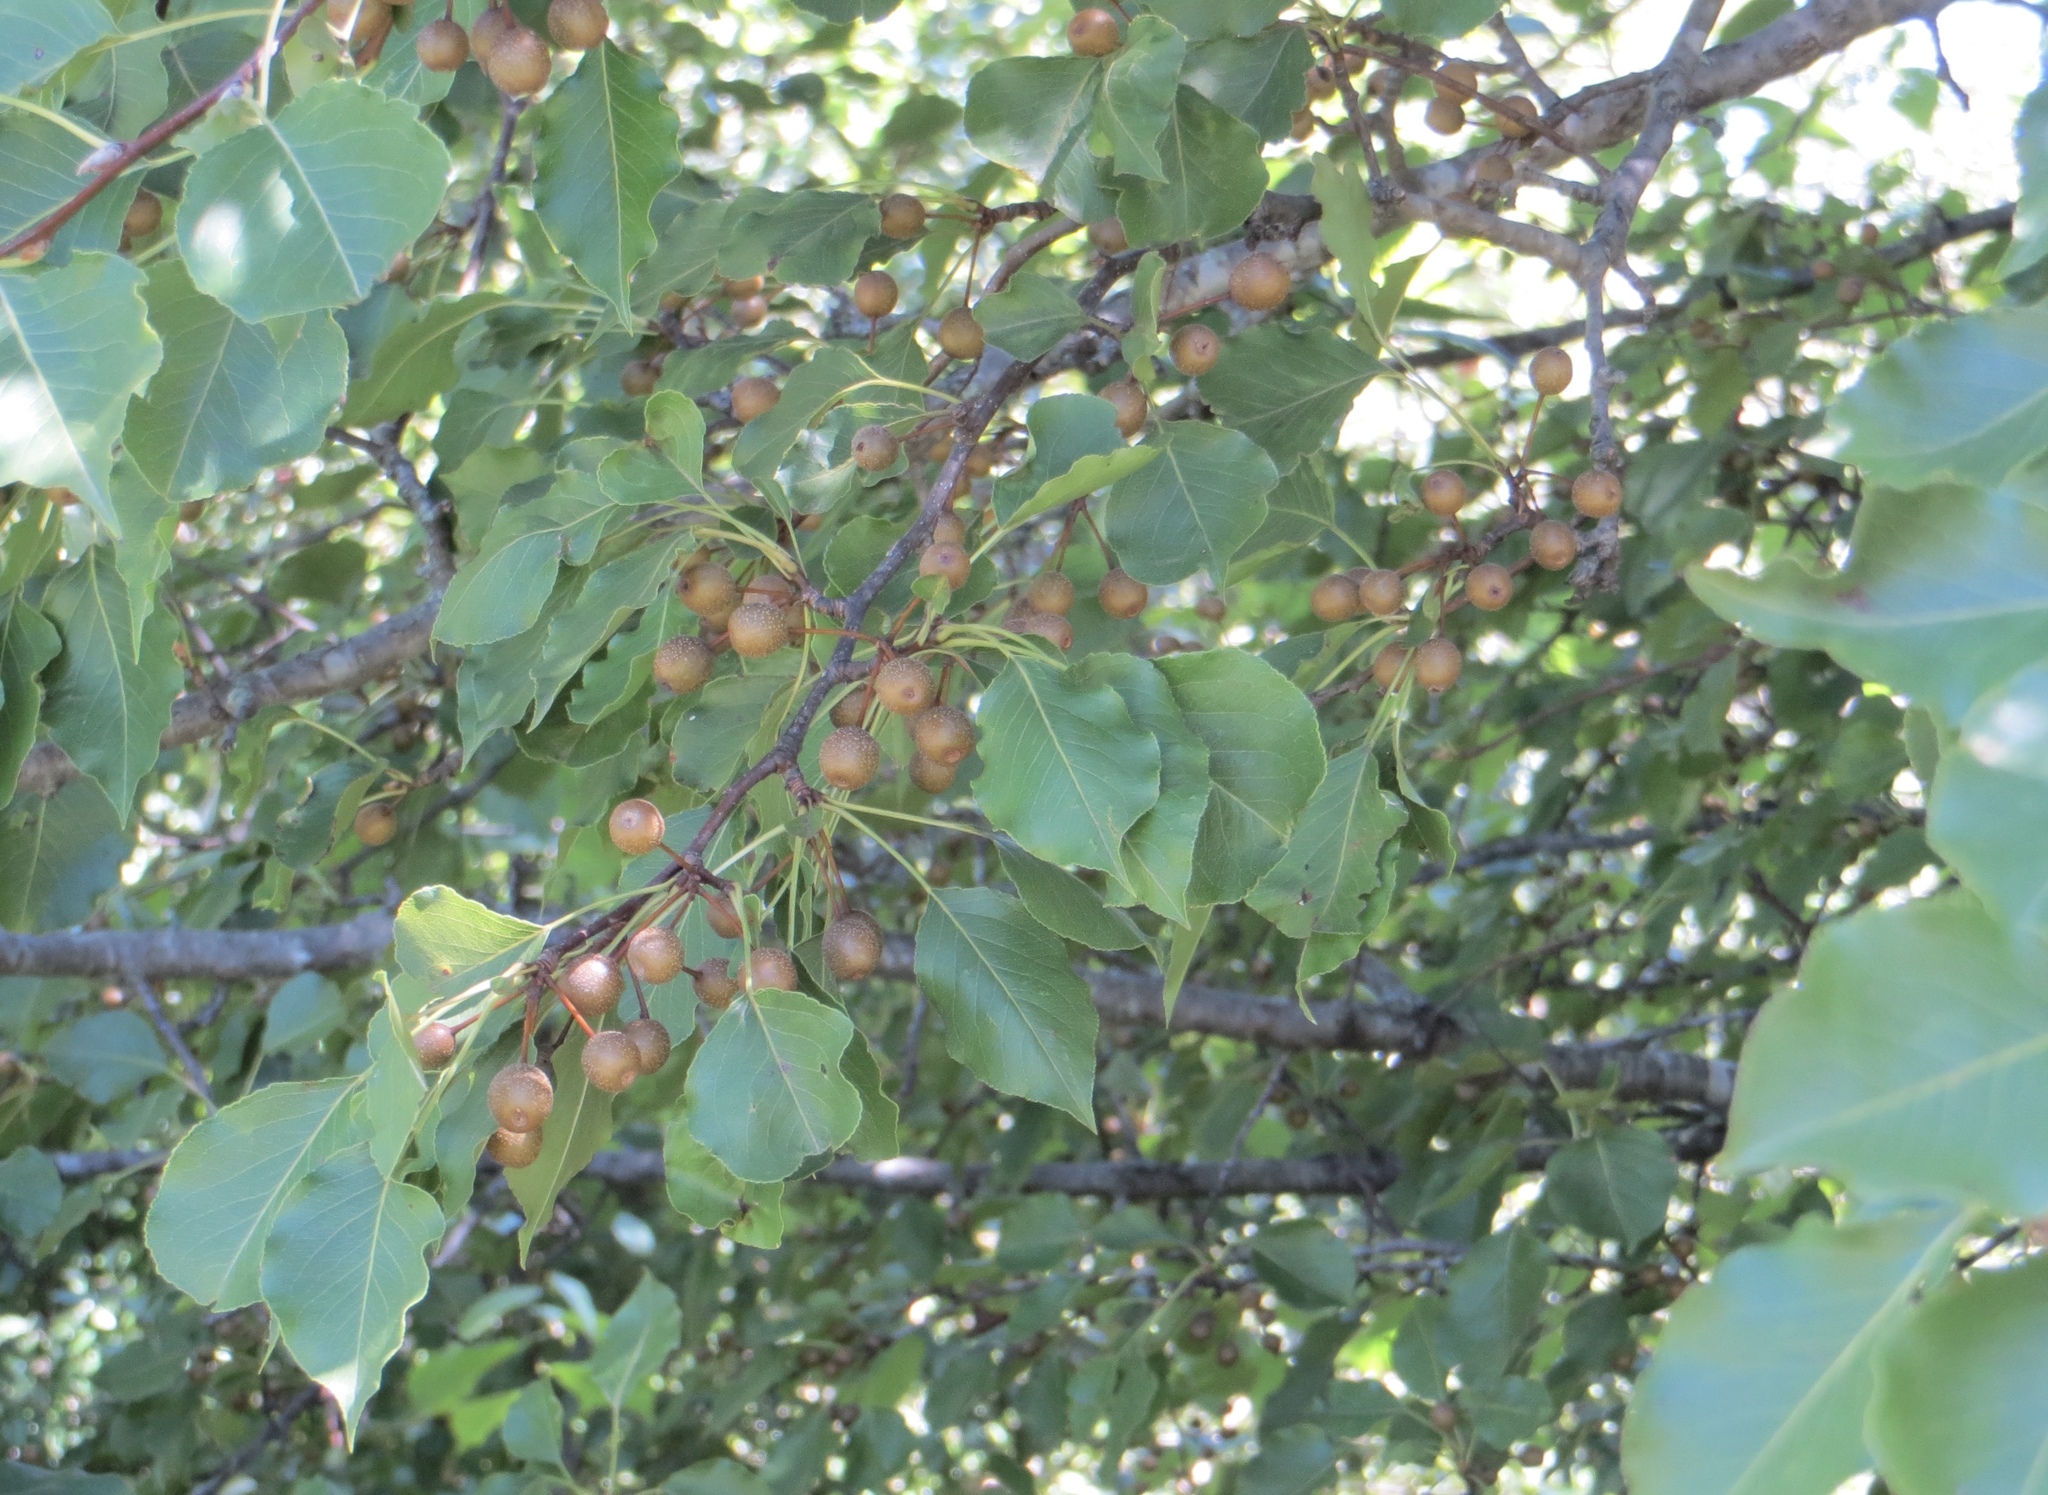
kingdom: Plantae
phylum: Tracheophyta
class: Magnoliopsida
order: Rosales
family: Rosaceae
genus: Pyrus
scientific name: Pyrus calleryana
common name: Callery pear
